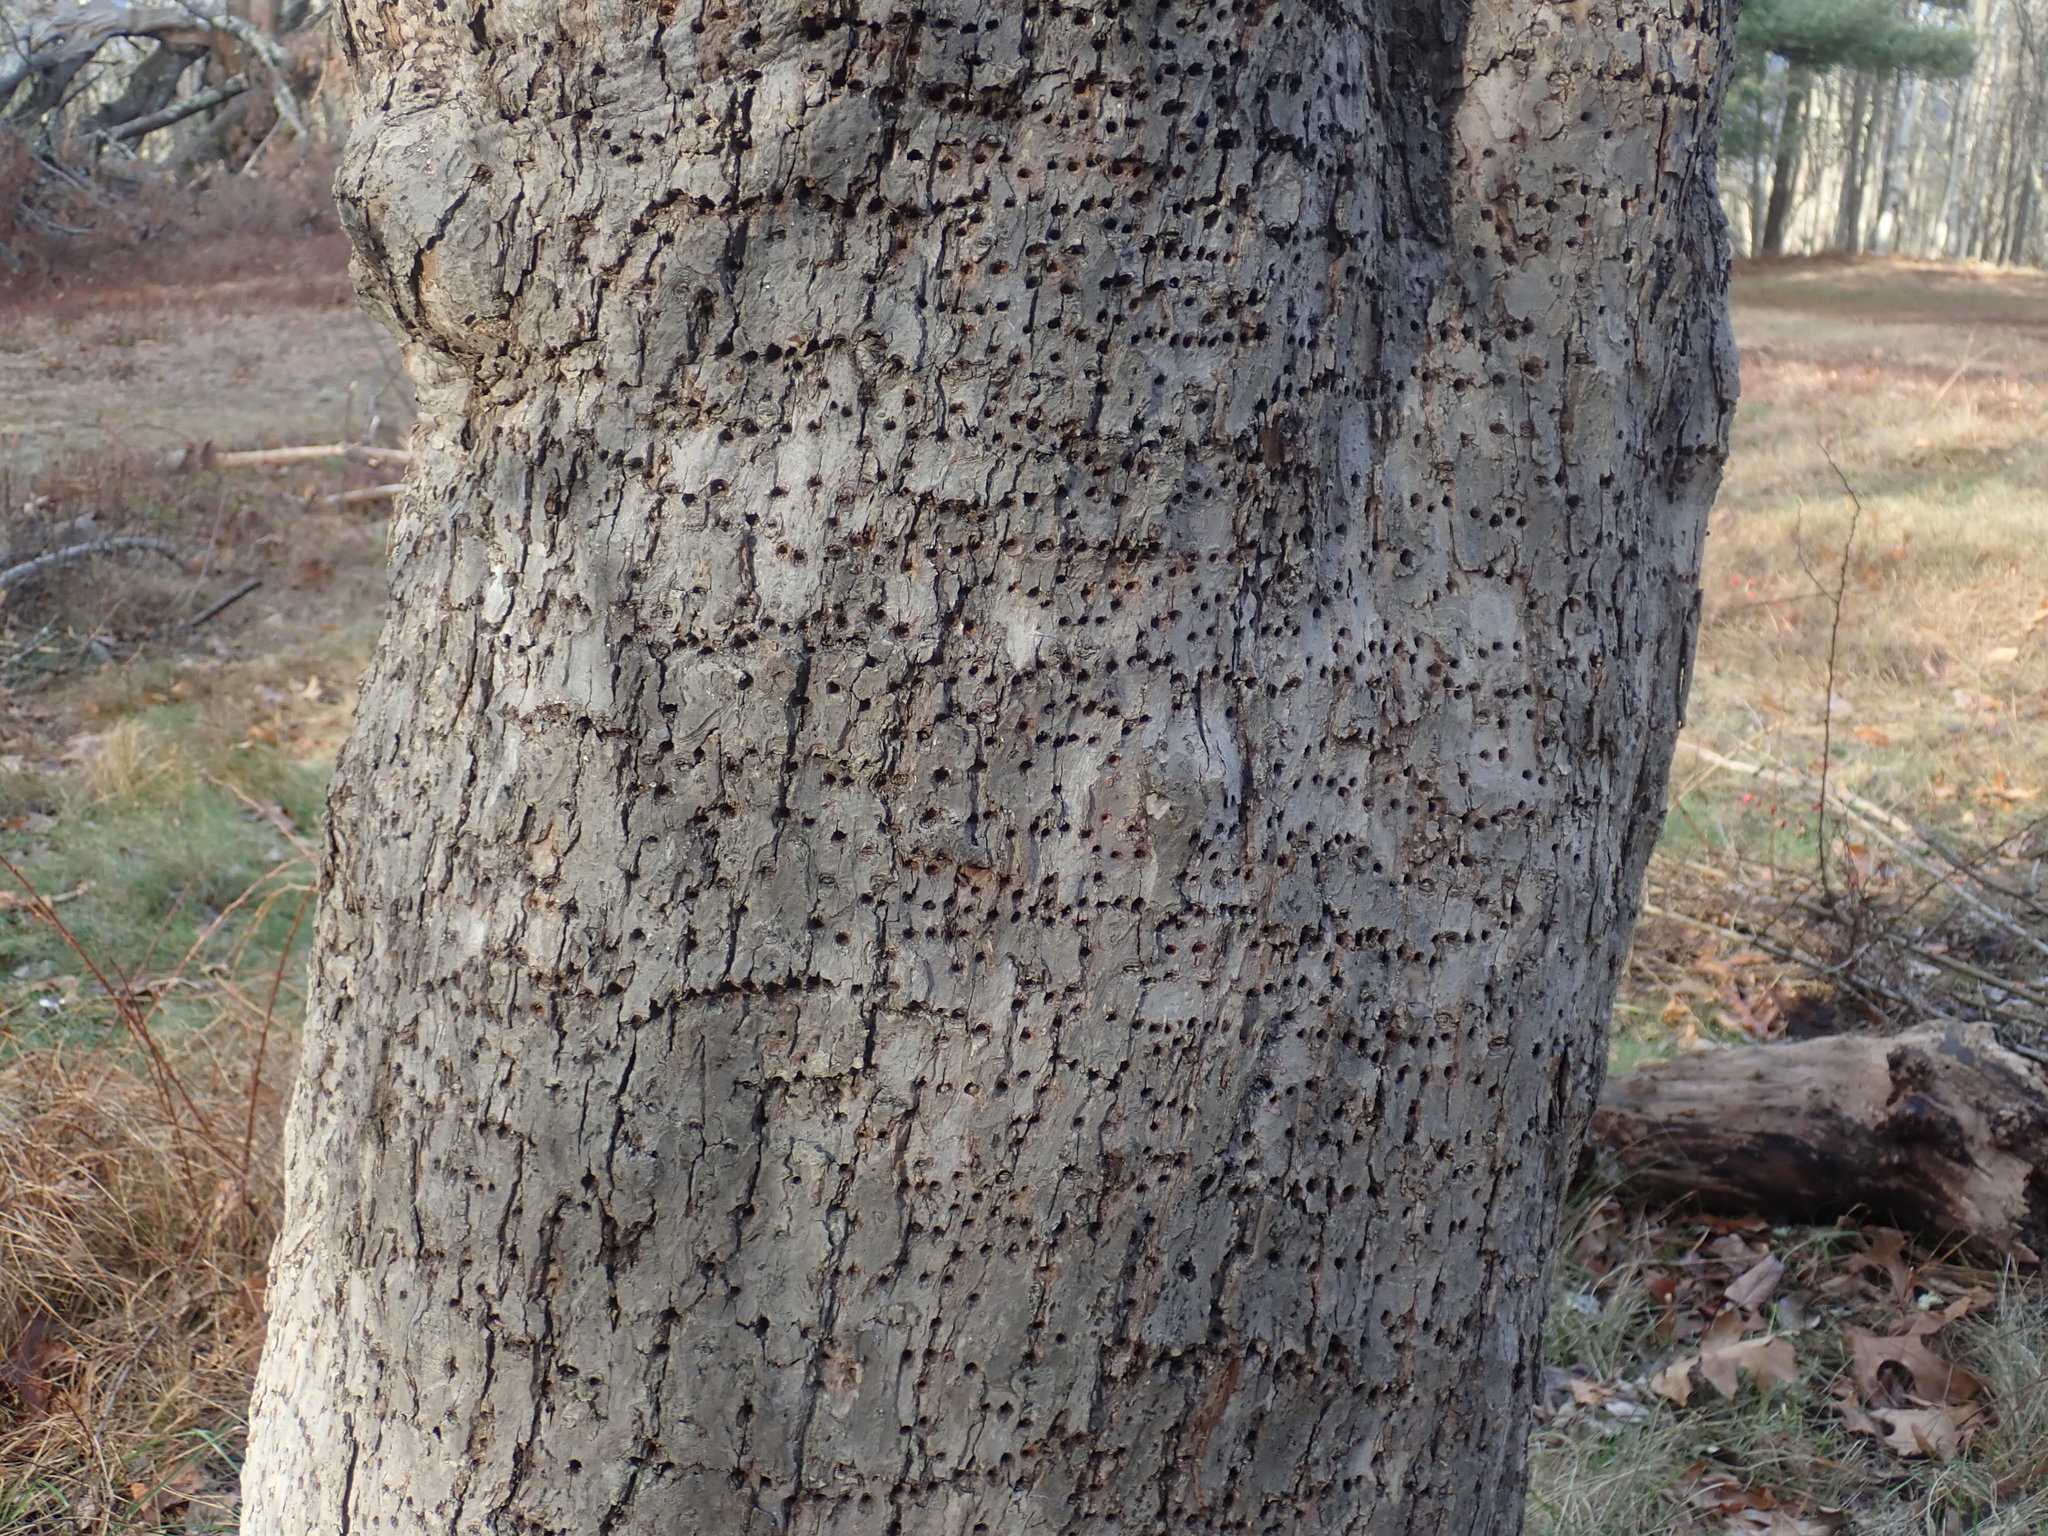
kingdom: Animalia
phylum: Chordata
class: Aves
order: Piciformes
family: Picidae
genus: Sphyrapicus
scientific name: Sphyrapicus varius
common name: Yellow-bellied sapsucker
